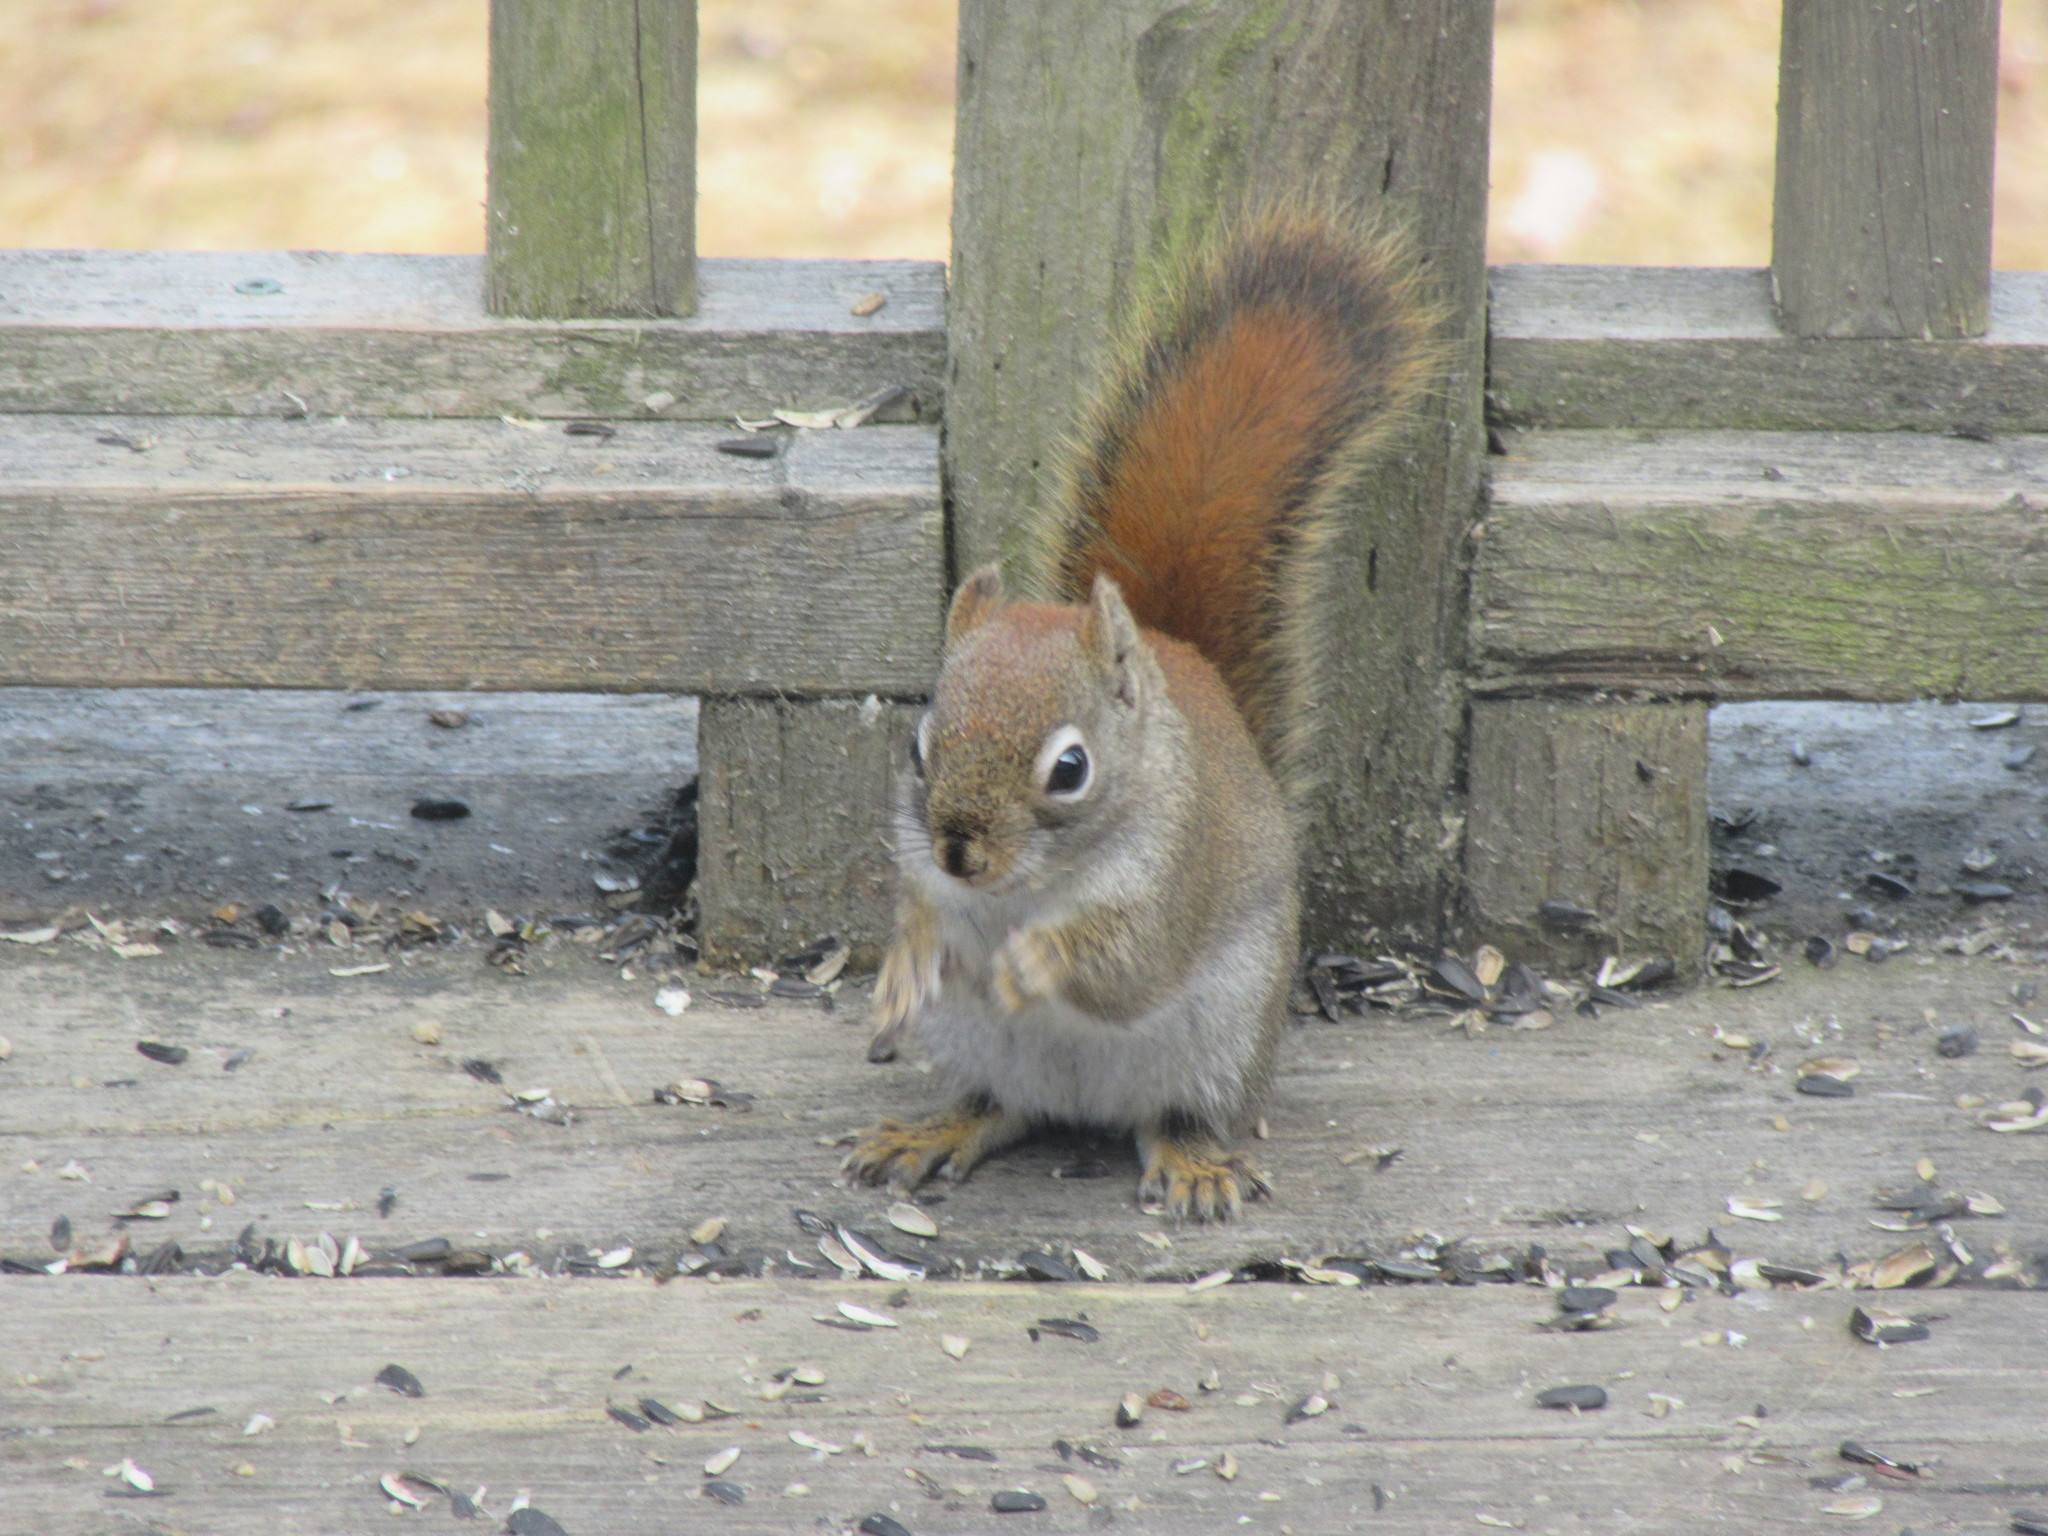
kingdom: Animalia
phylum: Chordata
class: Mammalia
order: Rodentia
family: Sciuridae
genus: Tamiasciurus
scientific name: Tamiasciurus hudsonicus
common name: Red squirrel
